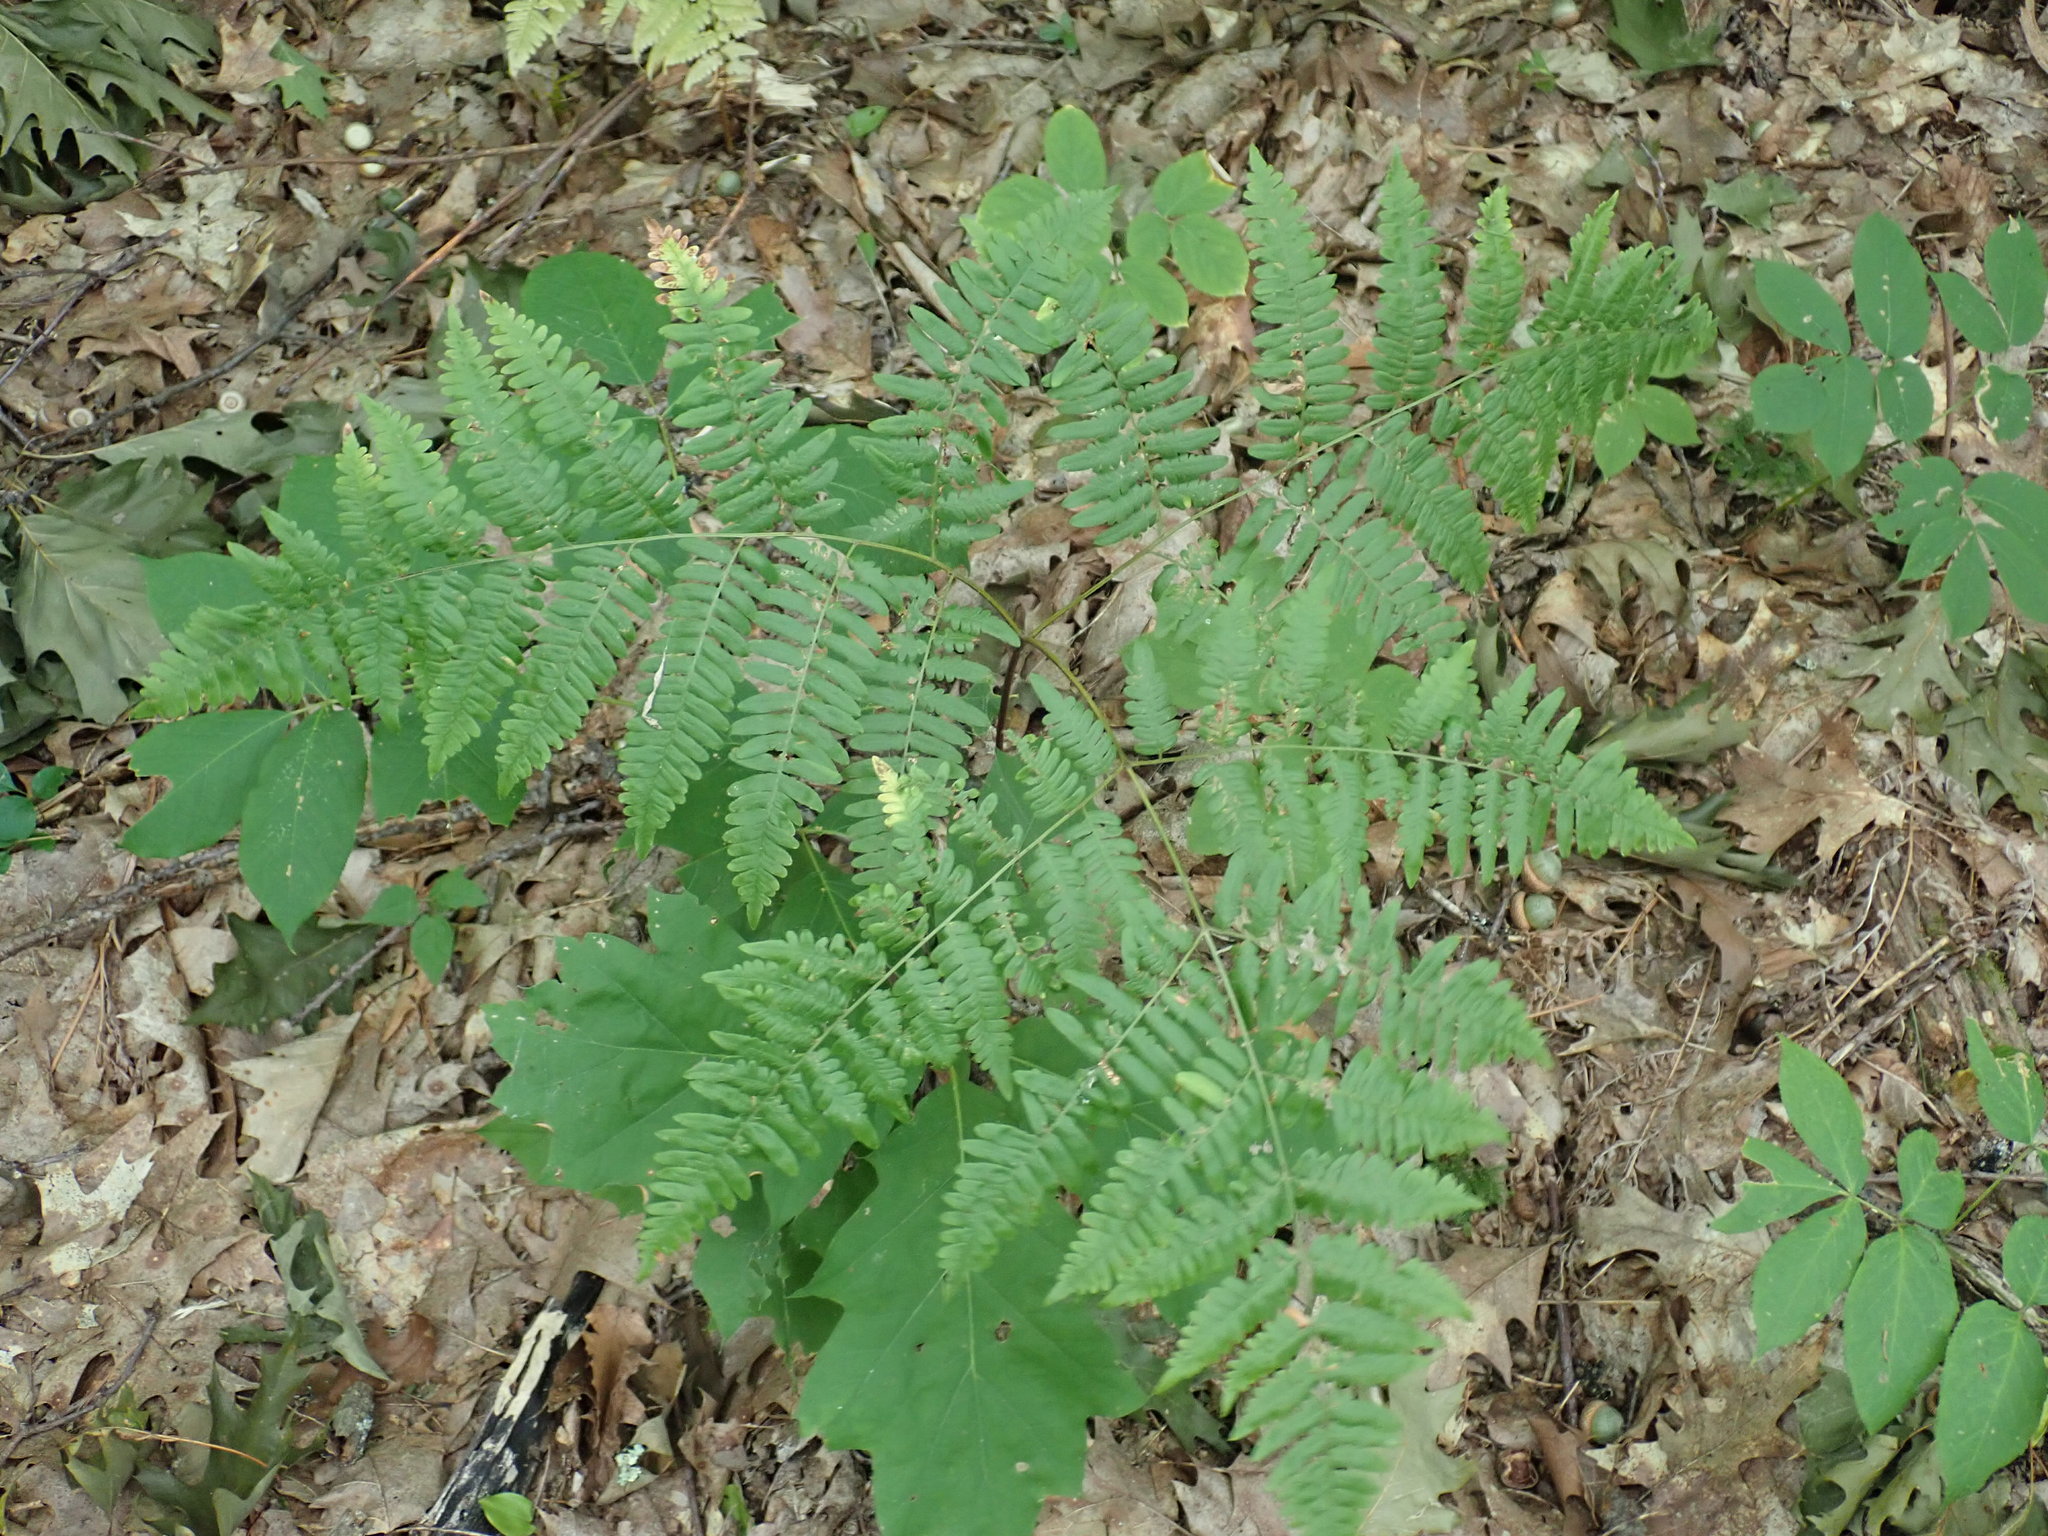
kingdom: Plantae
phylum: Tracheophyta
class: Polypodiopsida
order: Polypodiales
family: Dennstaedtiaceae
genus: Pteridium
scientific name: Pteridium aquilinum
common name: Bracken
